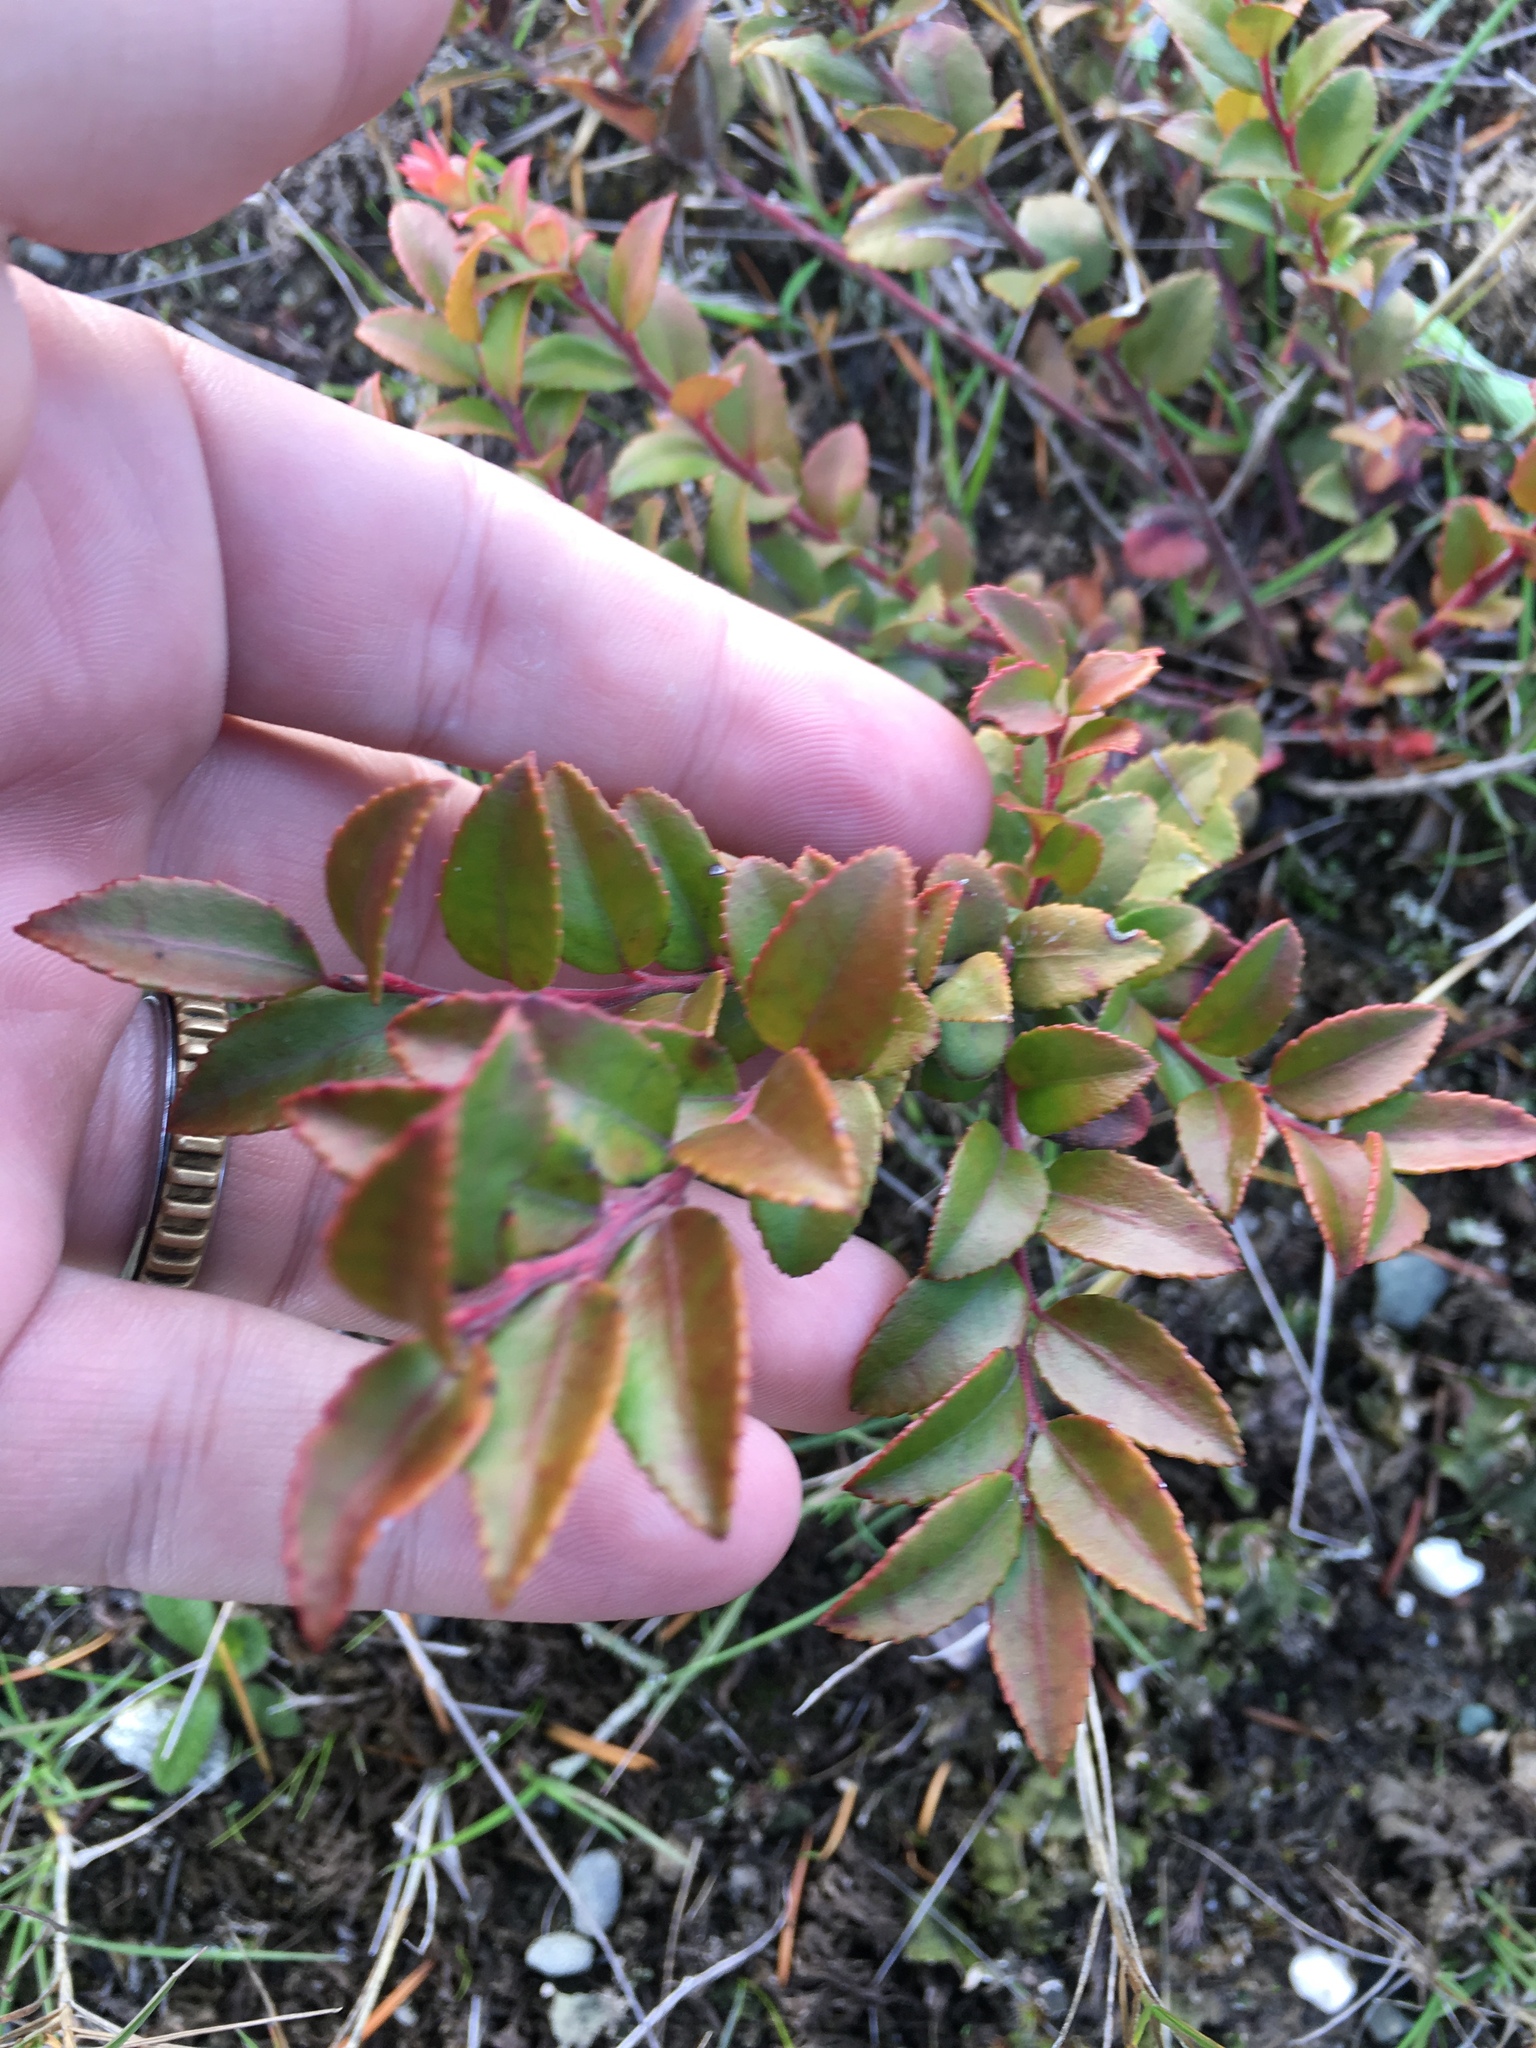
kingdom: Plantae
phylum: Tracheophyta
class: Magnoliopsida
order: Ericales
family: Ericaceae
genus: Vaccinium
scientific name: Vaccinium ovatum
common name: California-huckleberry
